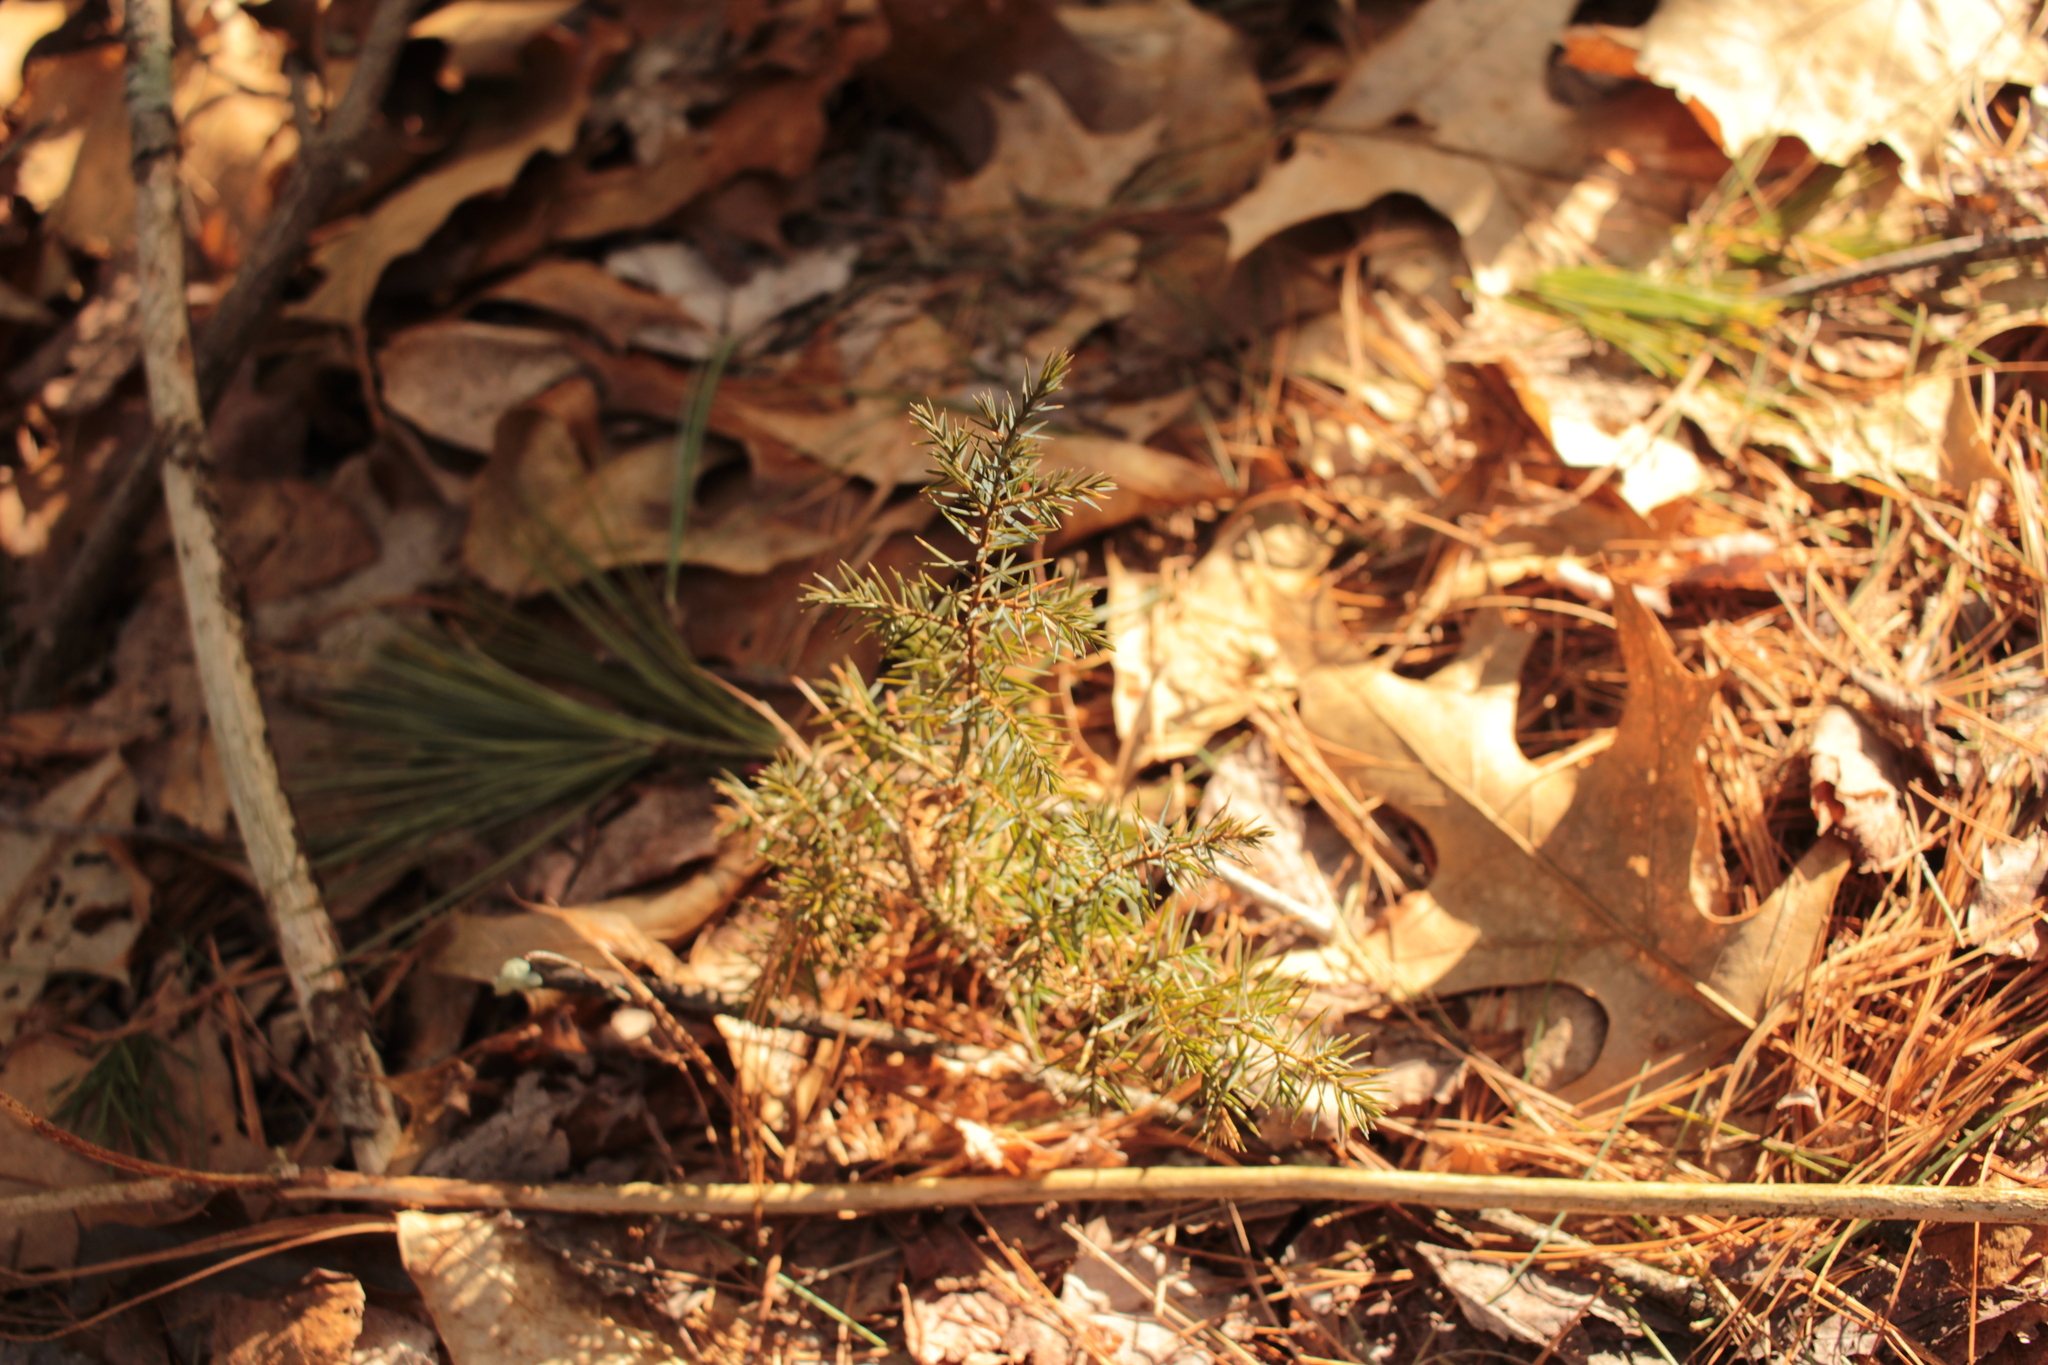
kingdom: Plantae
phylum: Tracheophyta
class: Pinopsida
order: Pinales
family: Cupressaceae
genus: Juniperus
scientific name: Juniperus virginiana
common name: Red juniper
